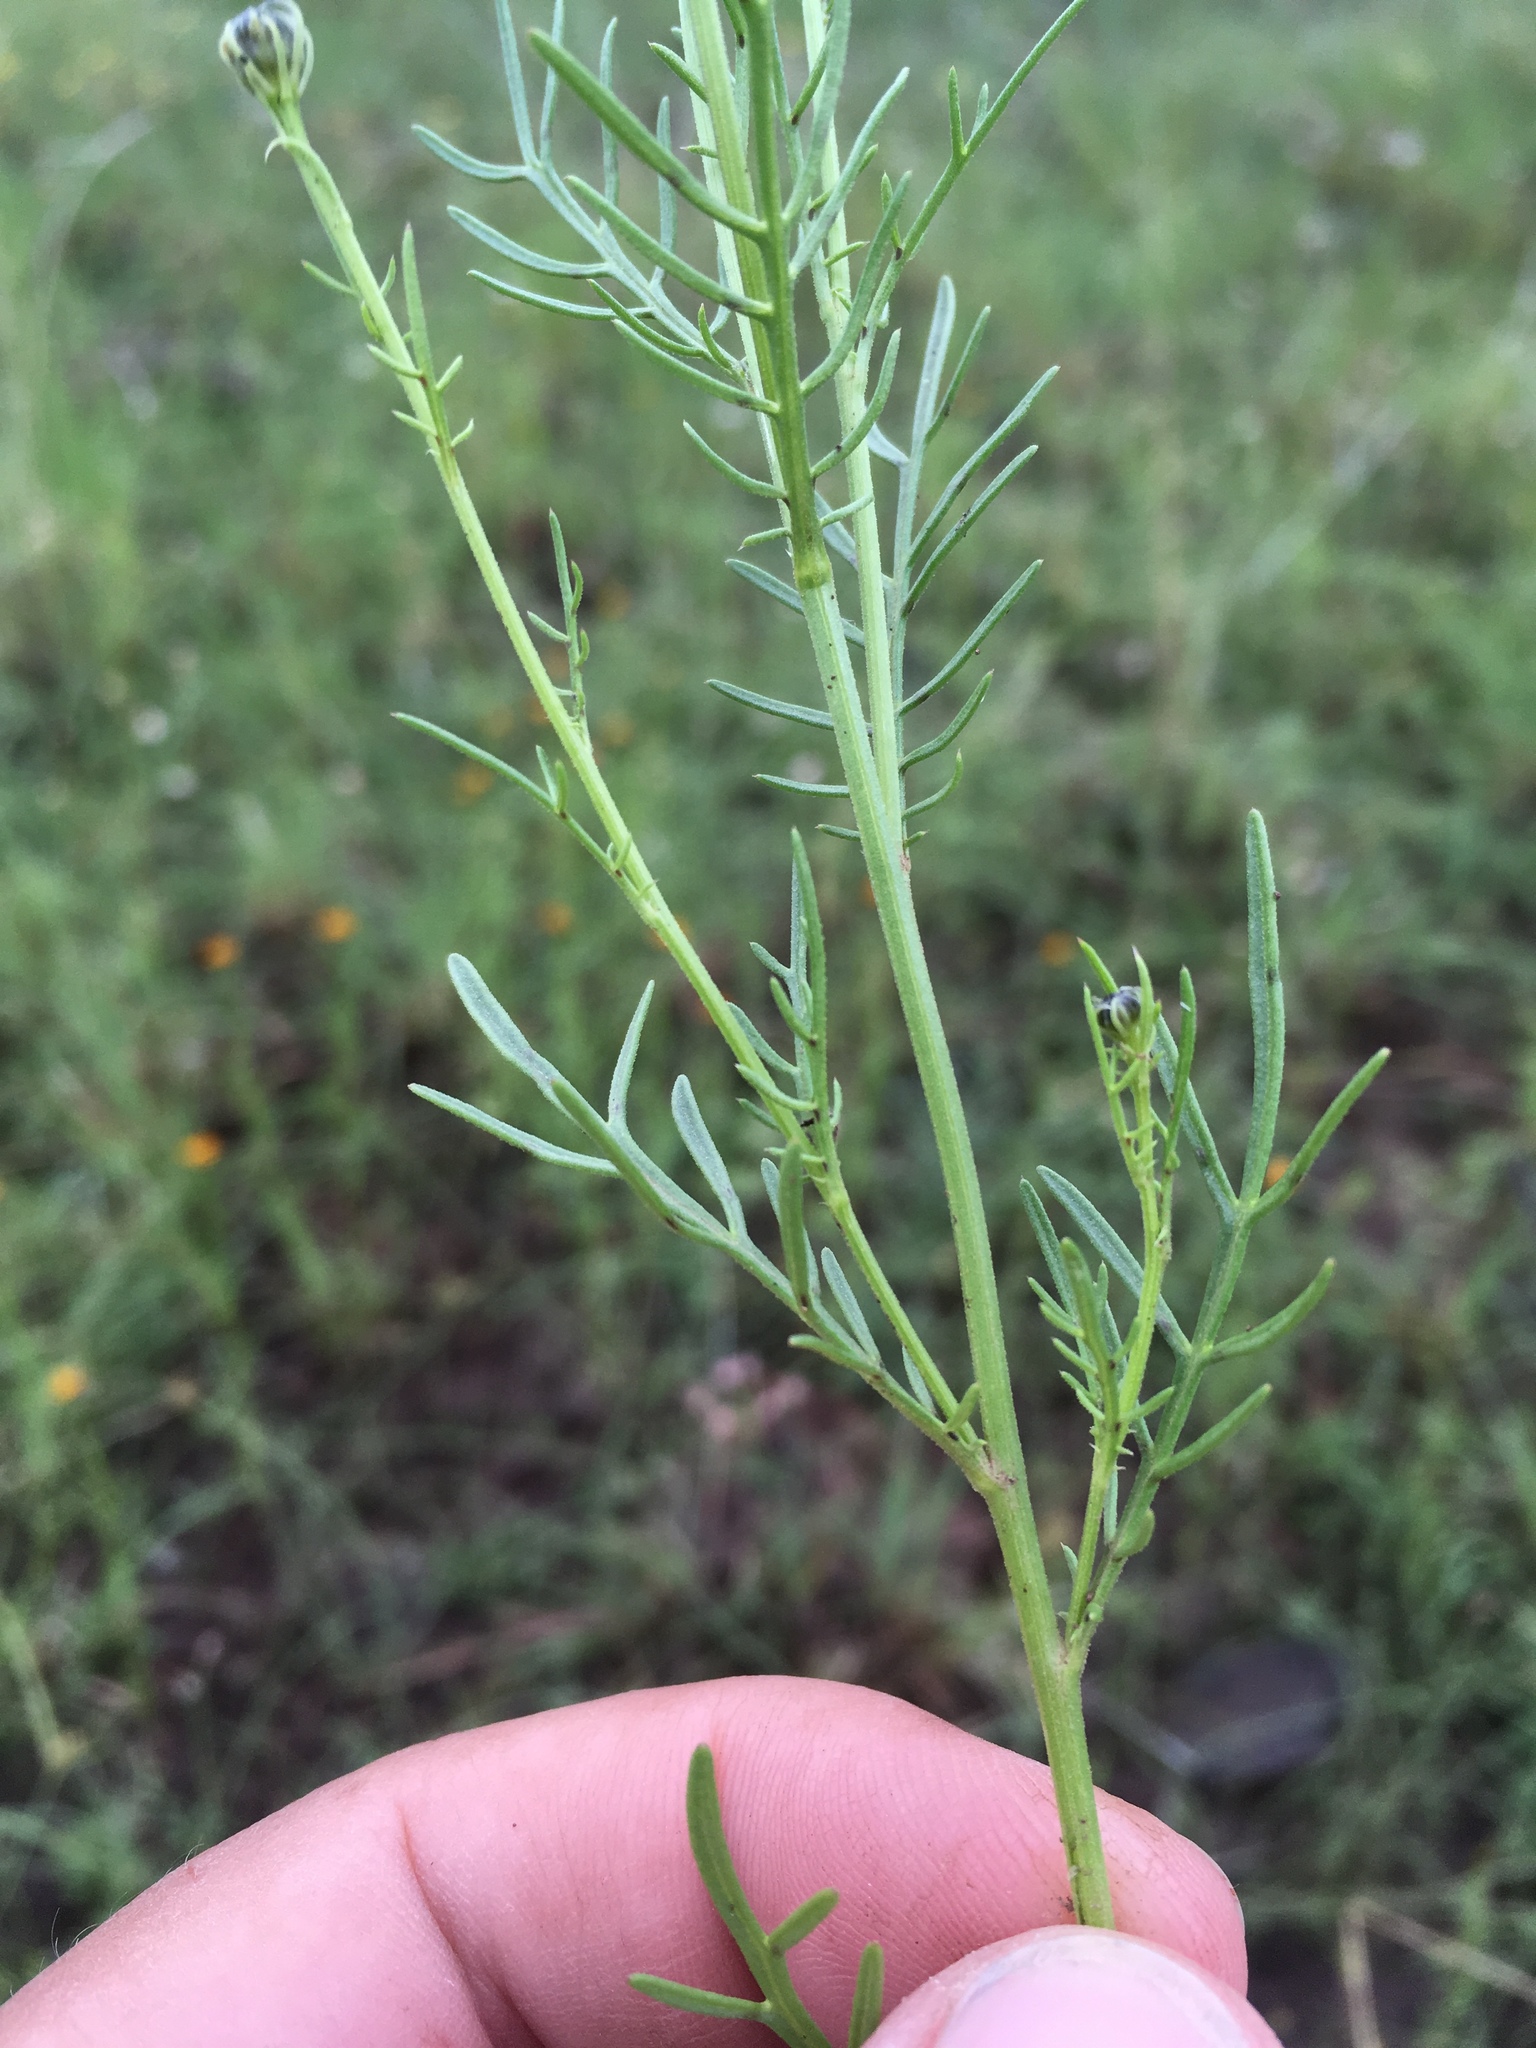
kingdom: Plantae
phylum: Tracheophyta
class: Magnoliopsida
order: Asterales
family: Asteraceae
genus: Adenophyllum
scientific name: Adenophyllum wrightii
